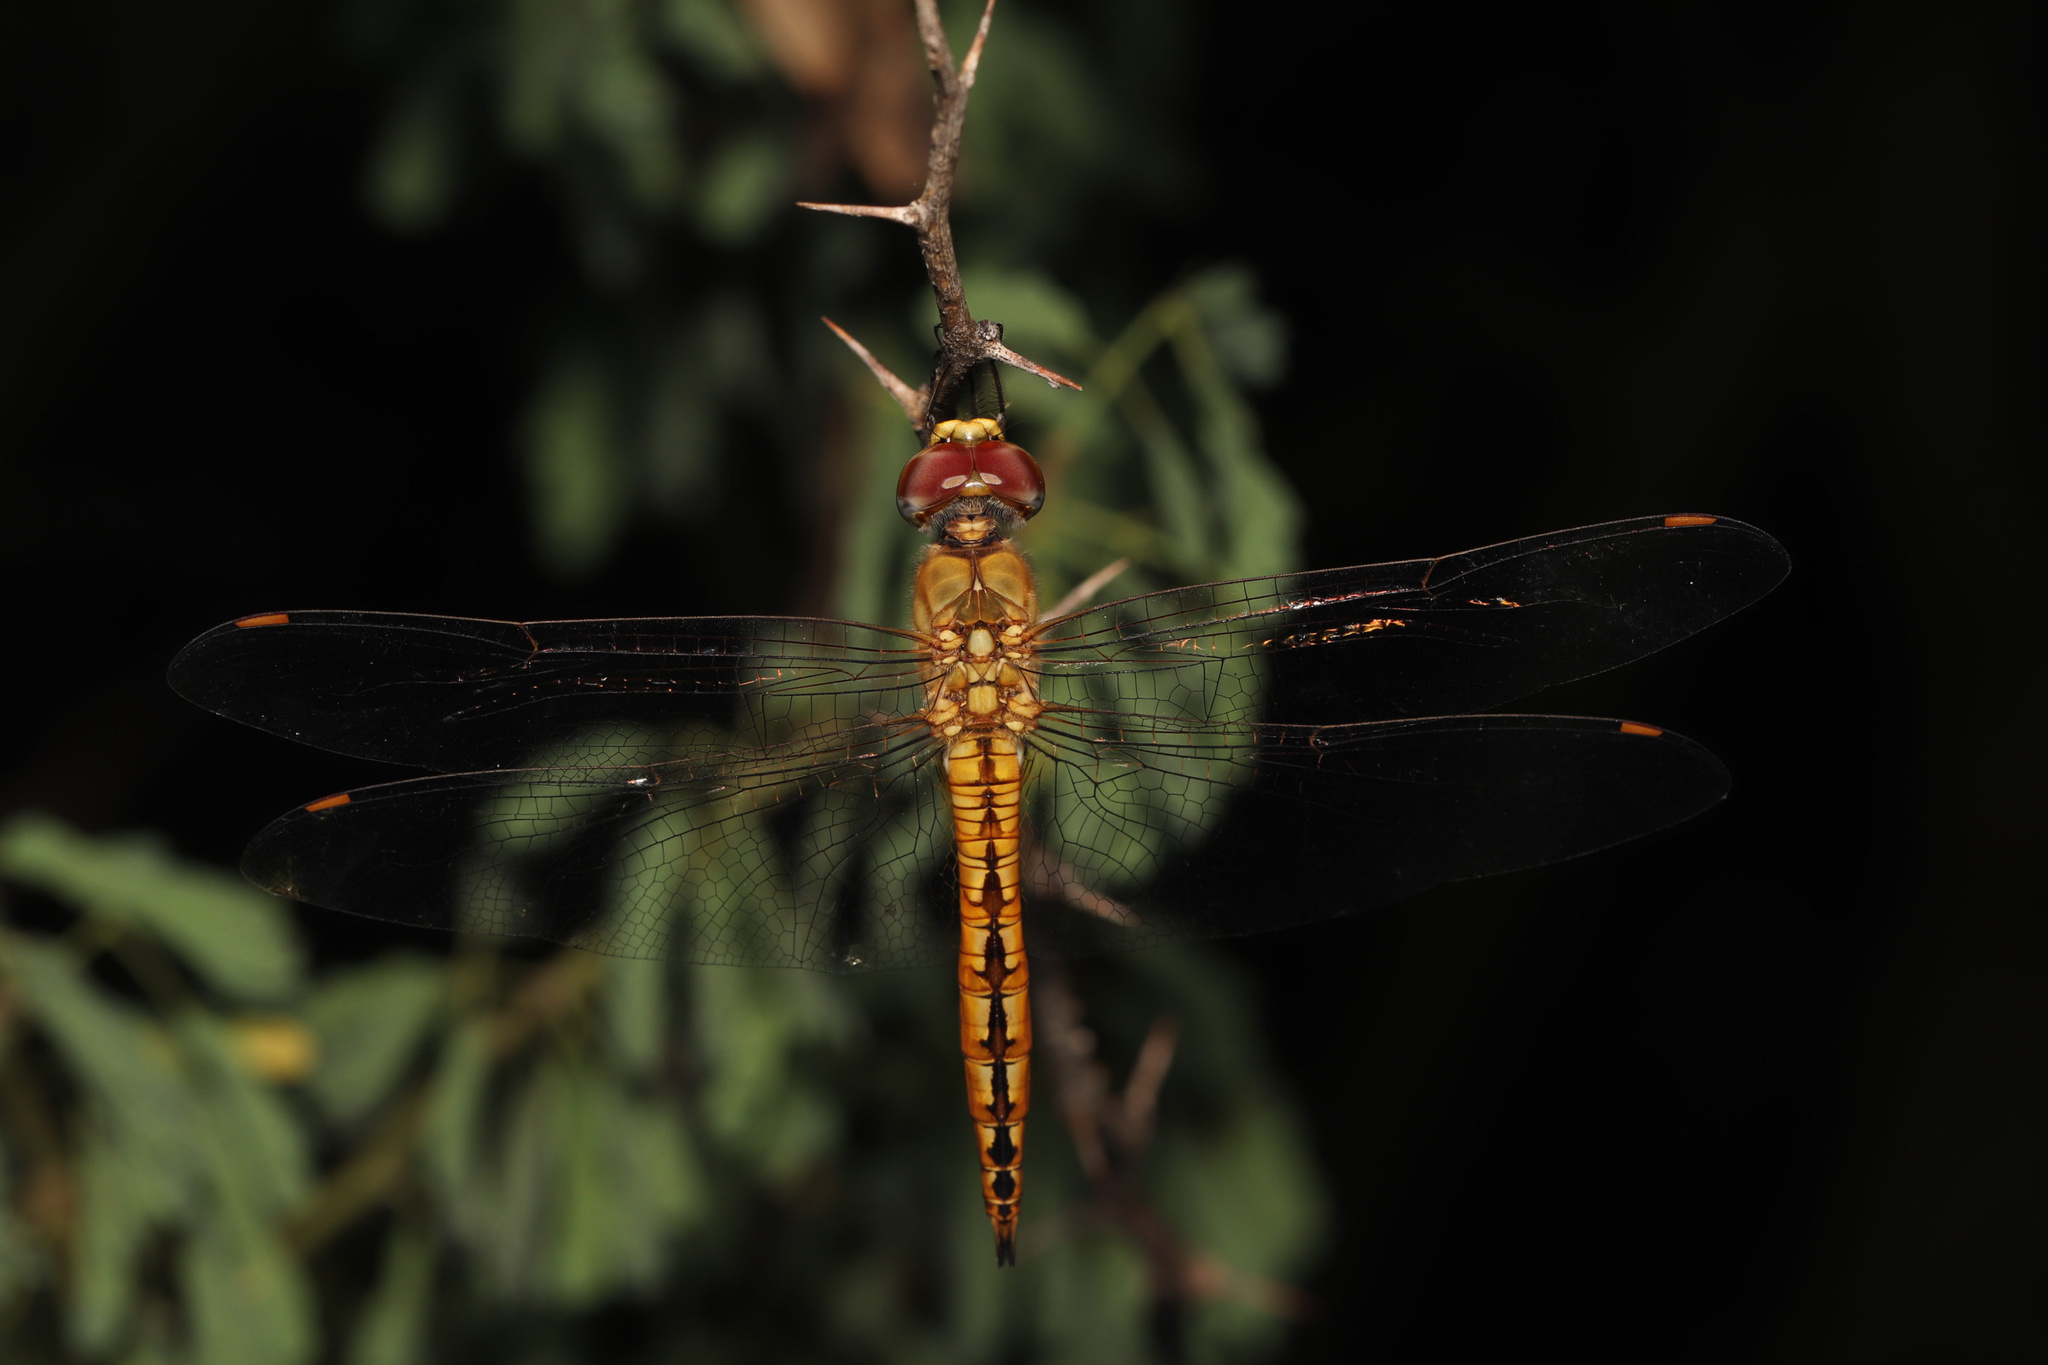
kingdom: Animalia
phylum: Arthropoda
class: Insecta
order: Odonata
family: Libellulidae
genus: Pantala
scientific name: Pantala flavescens
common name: Wandering glider
